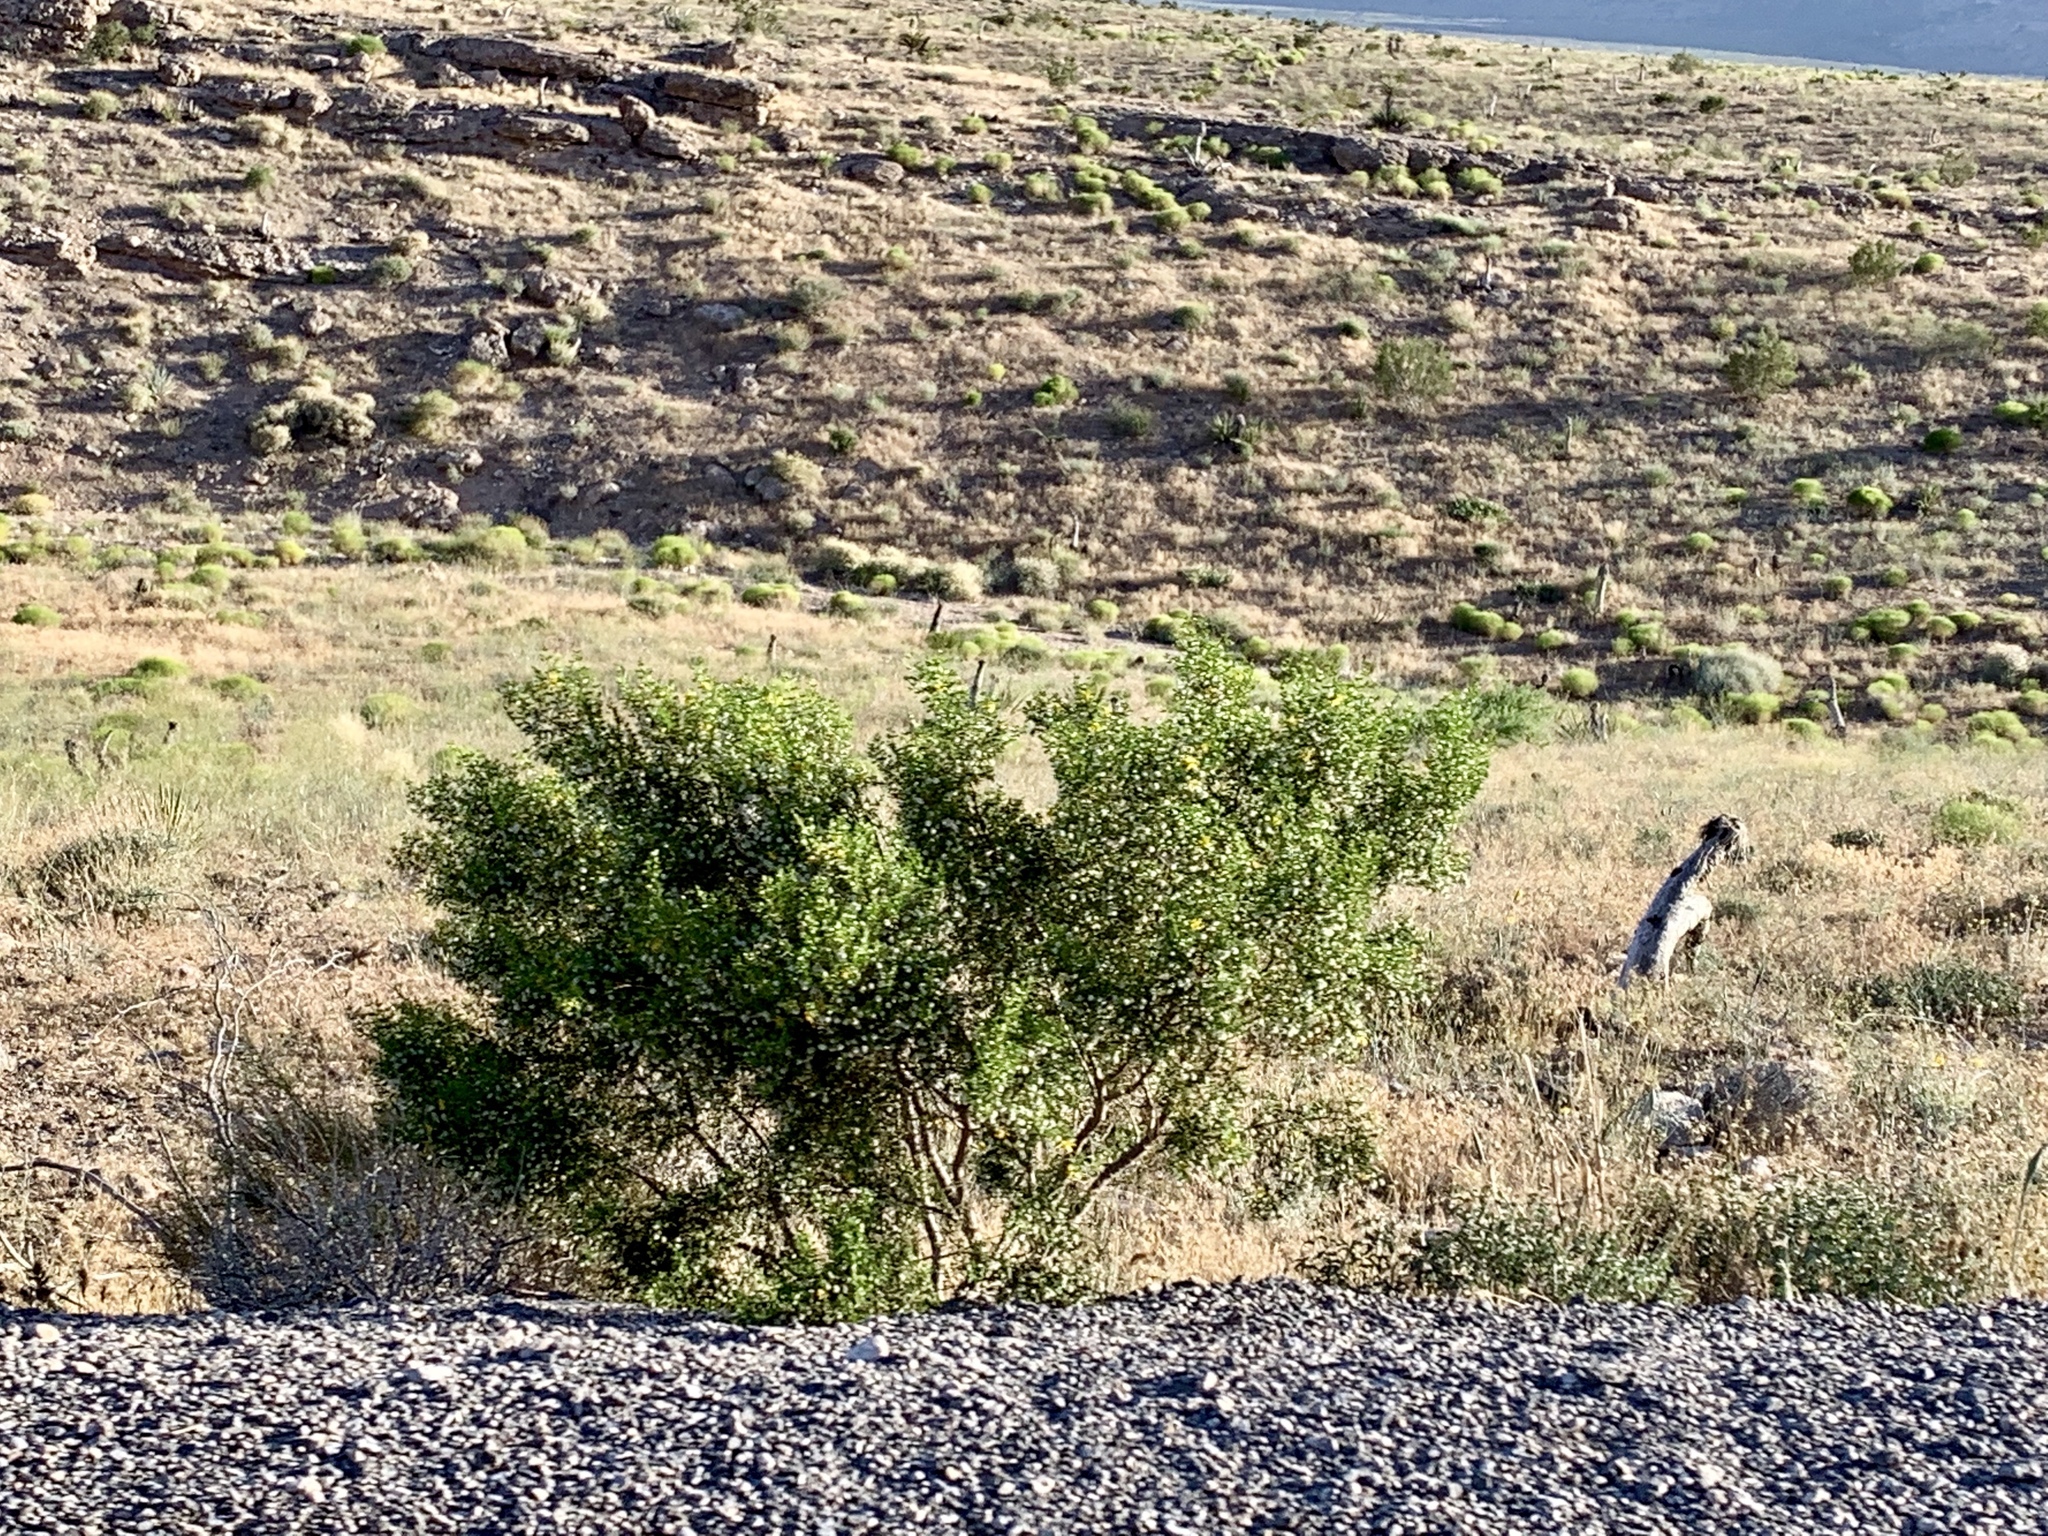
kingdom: Plantae
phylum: Tracheophyta
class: Magnoliopsida
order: Zygophyllales
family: Zygophyllaceae
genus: Larrea
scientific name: Larrea tridentata
